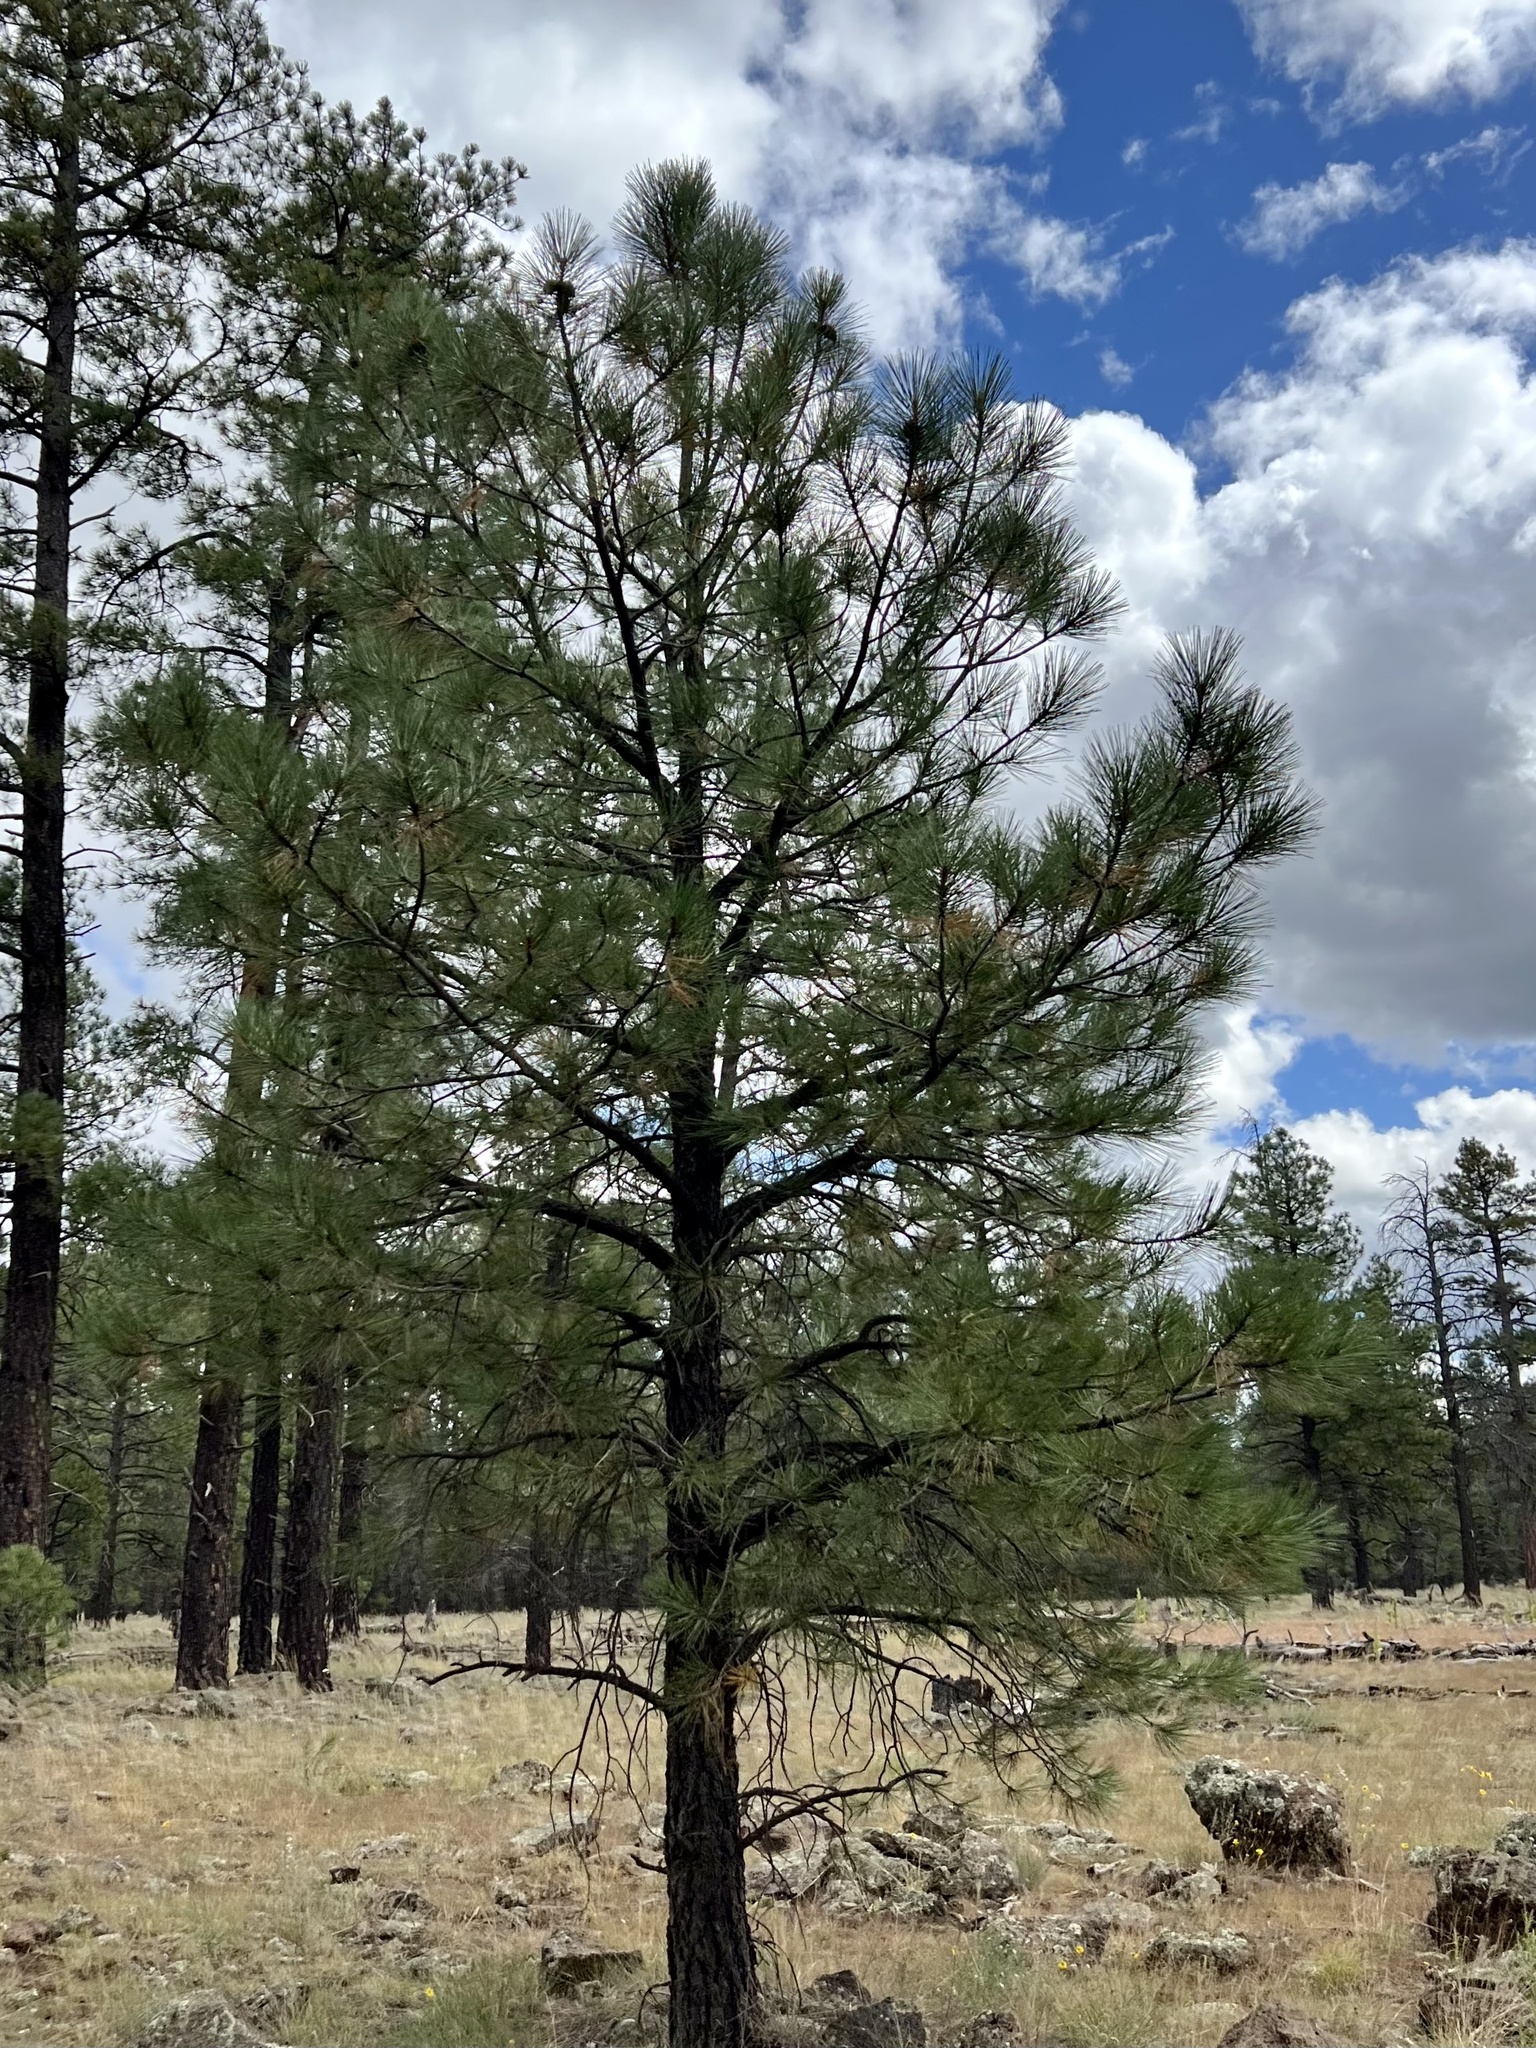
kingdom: Plantae
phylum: Tracheophyta
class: Pinopsida
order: Pinales
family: Pinaceae
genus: Pinus
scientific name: Pinus ponderosa
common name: Western yellow-pine
